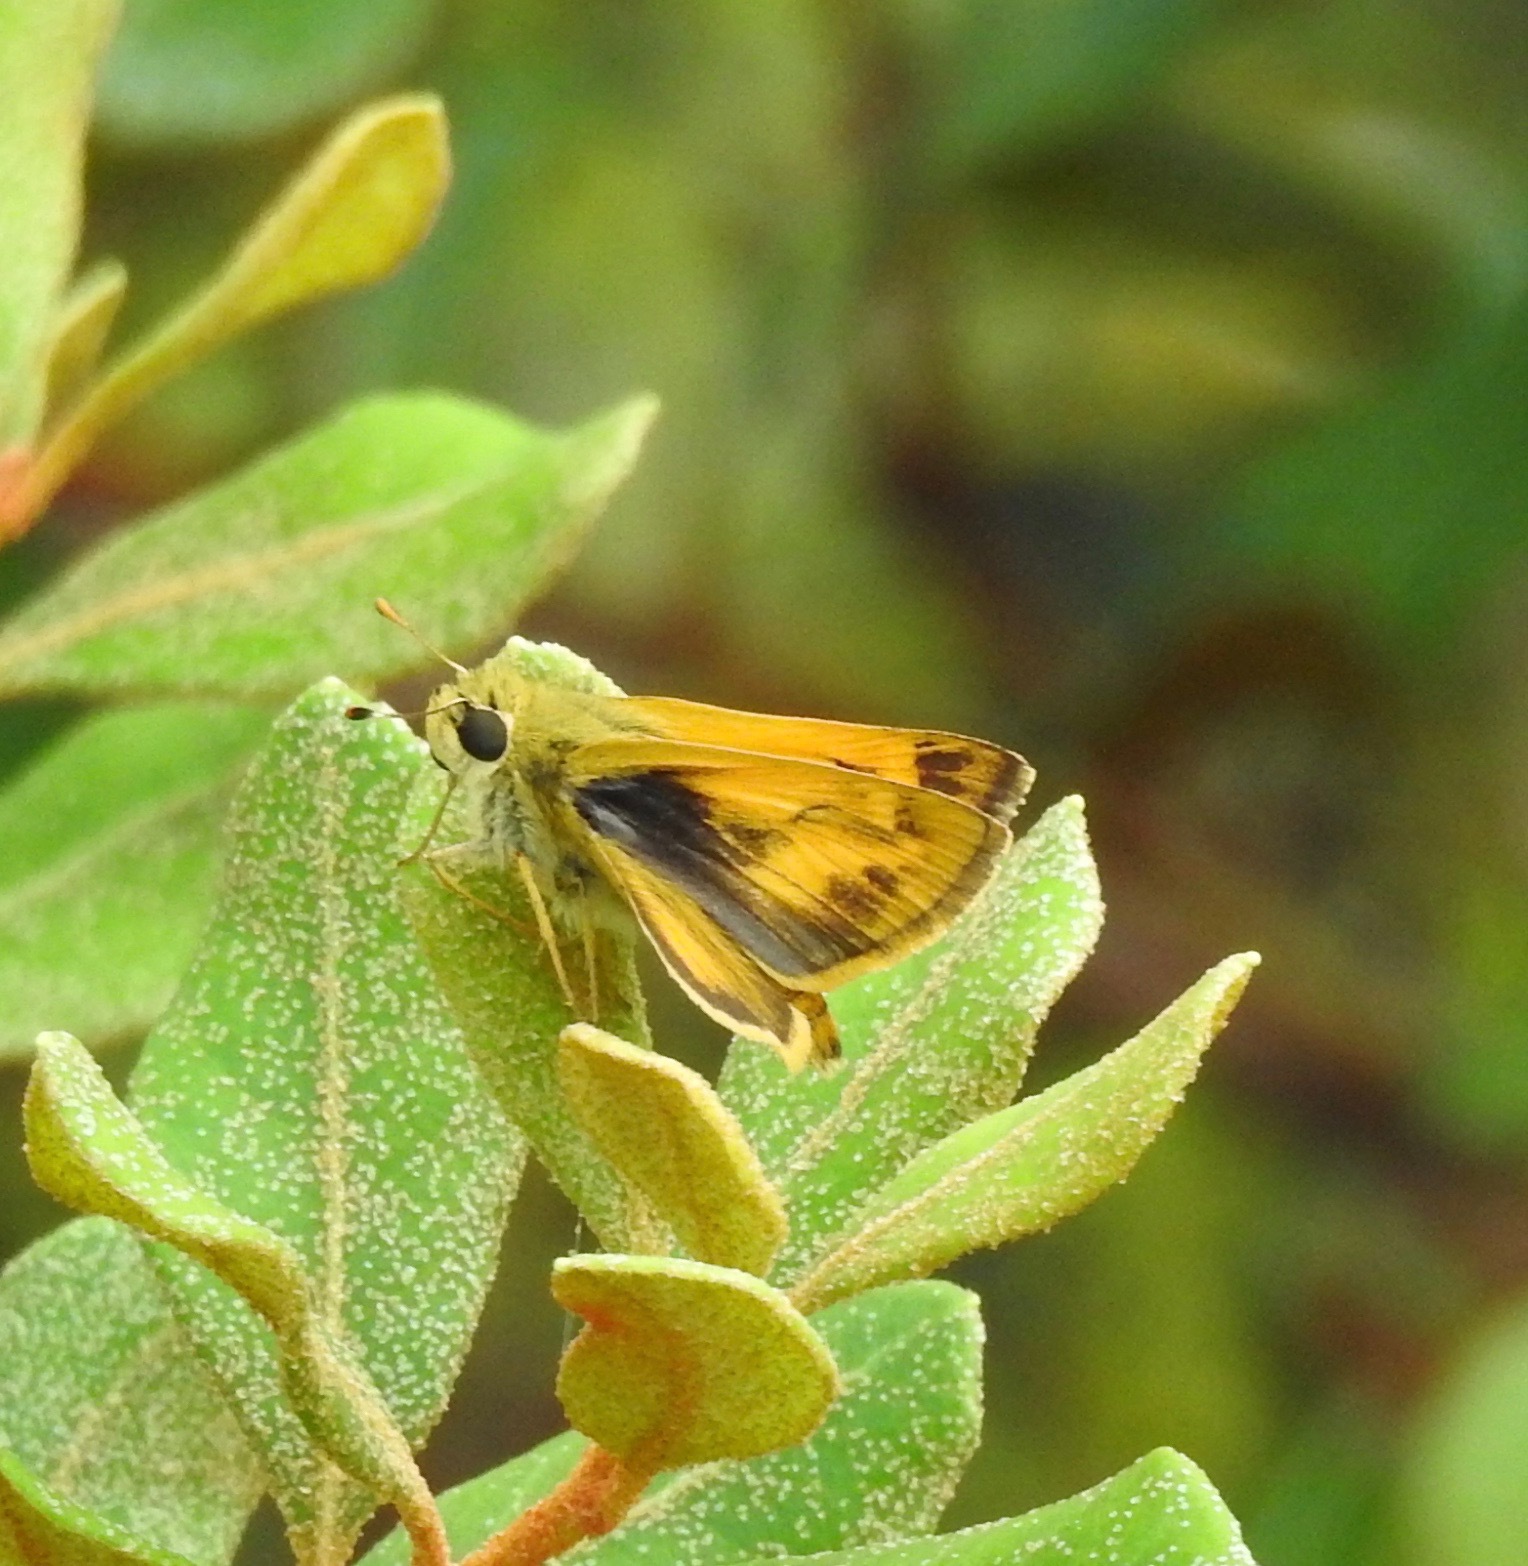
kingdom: Animalia
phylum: Arthropoda
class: Insecta
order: Lepidoptera
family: Hesperiidae
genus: Polites
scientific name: Polites vibex
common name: Whirlabout
